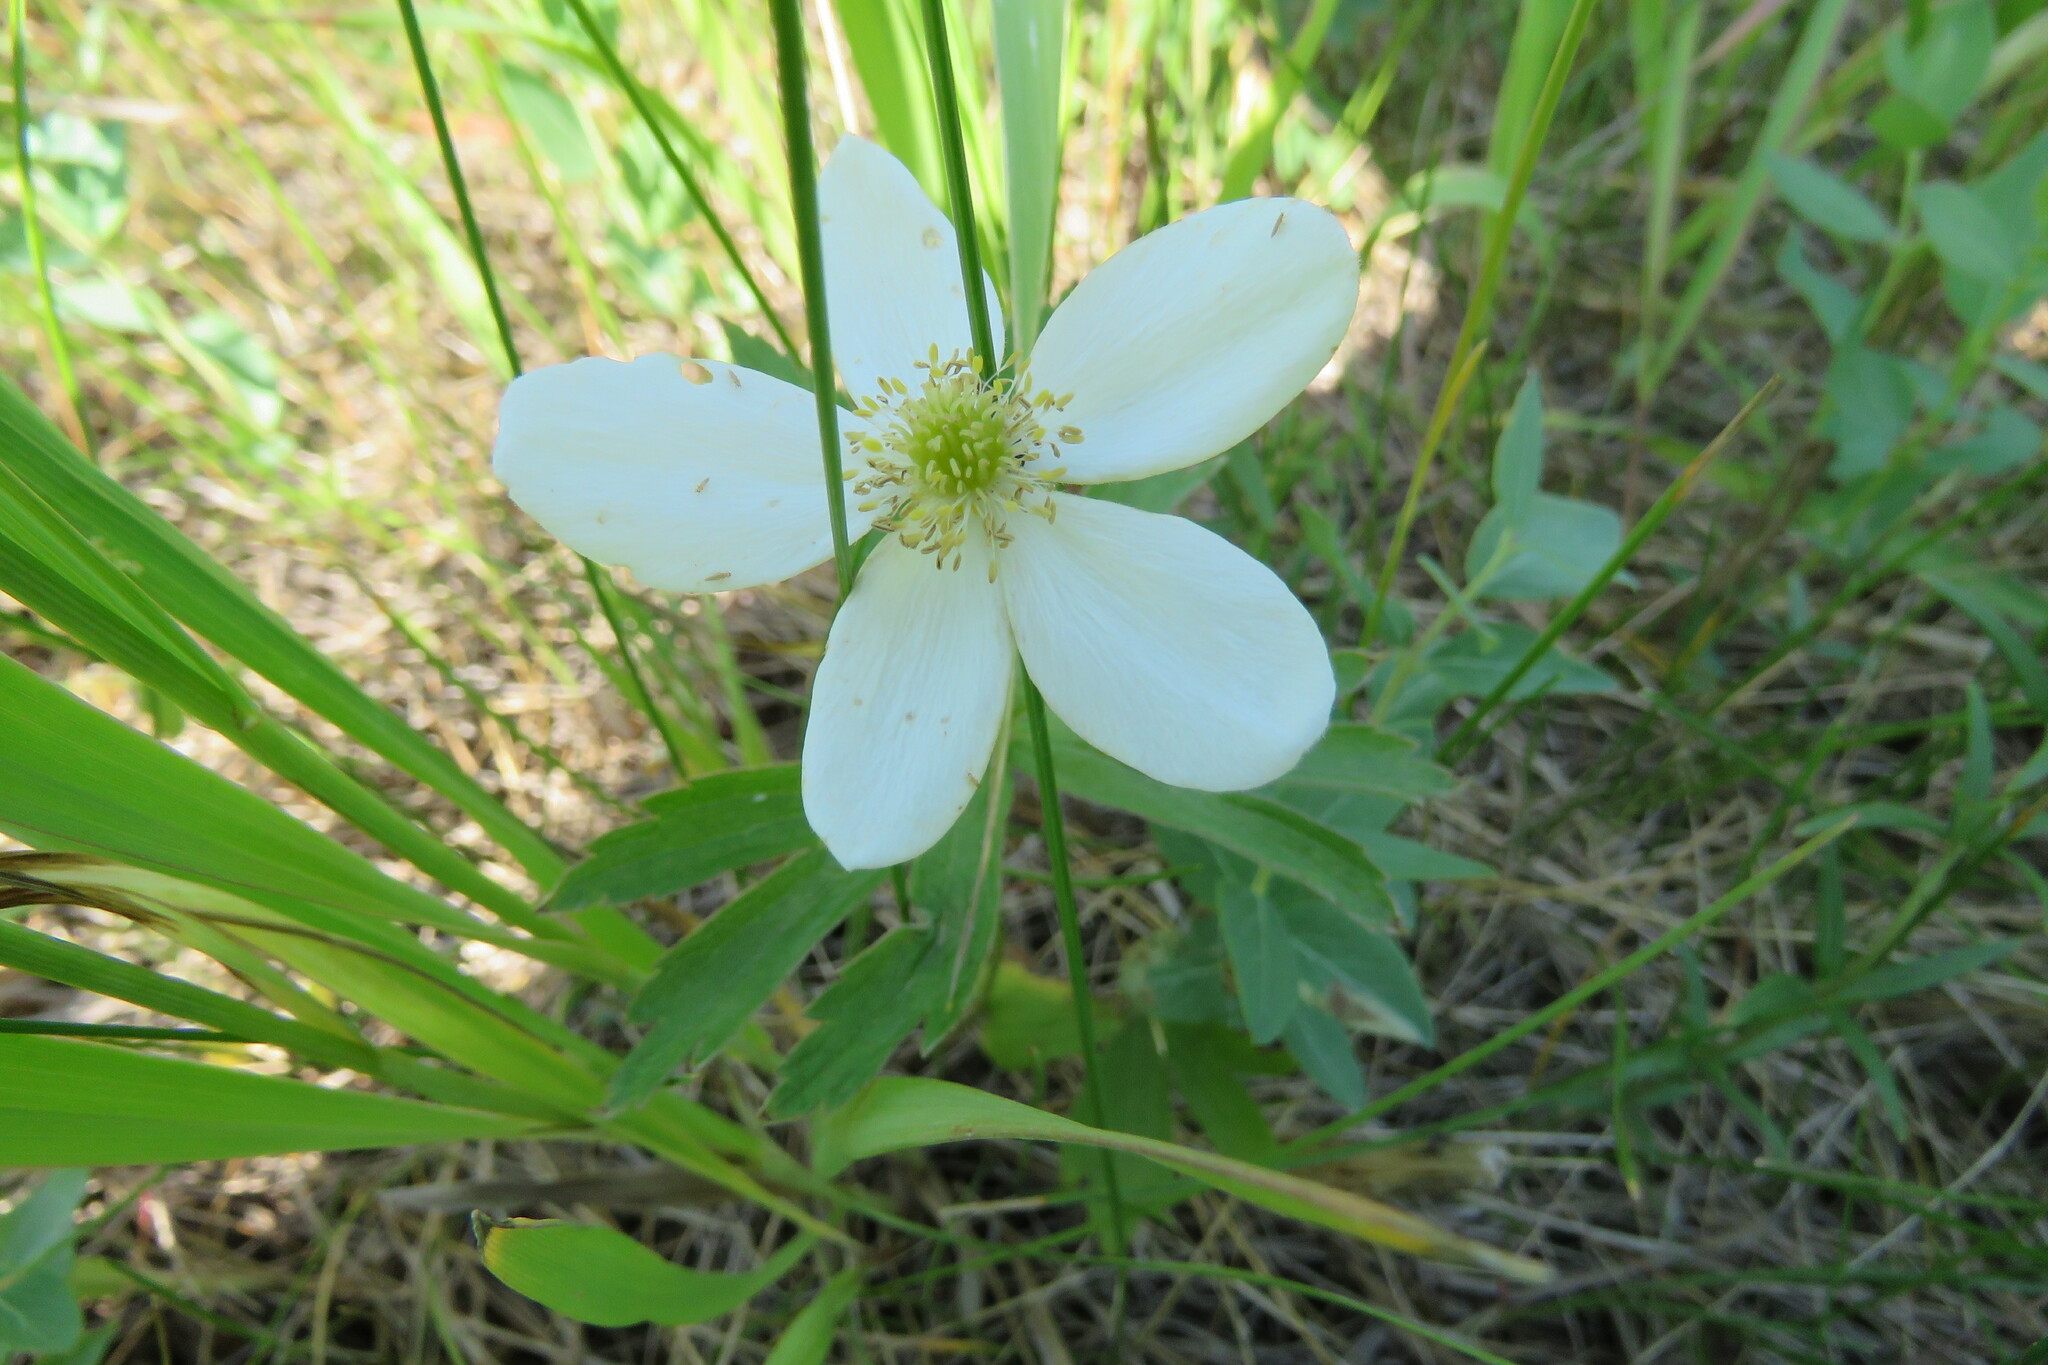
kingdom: Plantae
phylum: Tracheophyta
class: Magnoliopsida
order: Ranunculales
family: Ranunculaceae
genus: Anemonastrum
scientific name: Anemonastrum canadense
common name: Canada anemone
